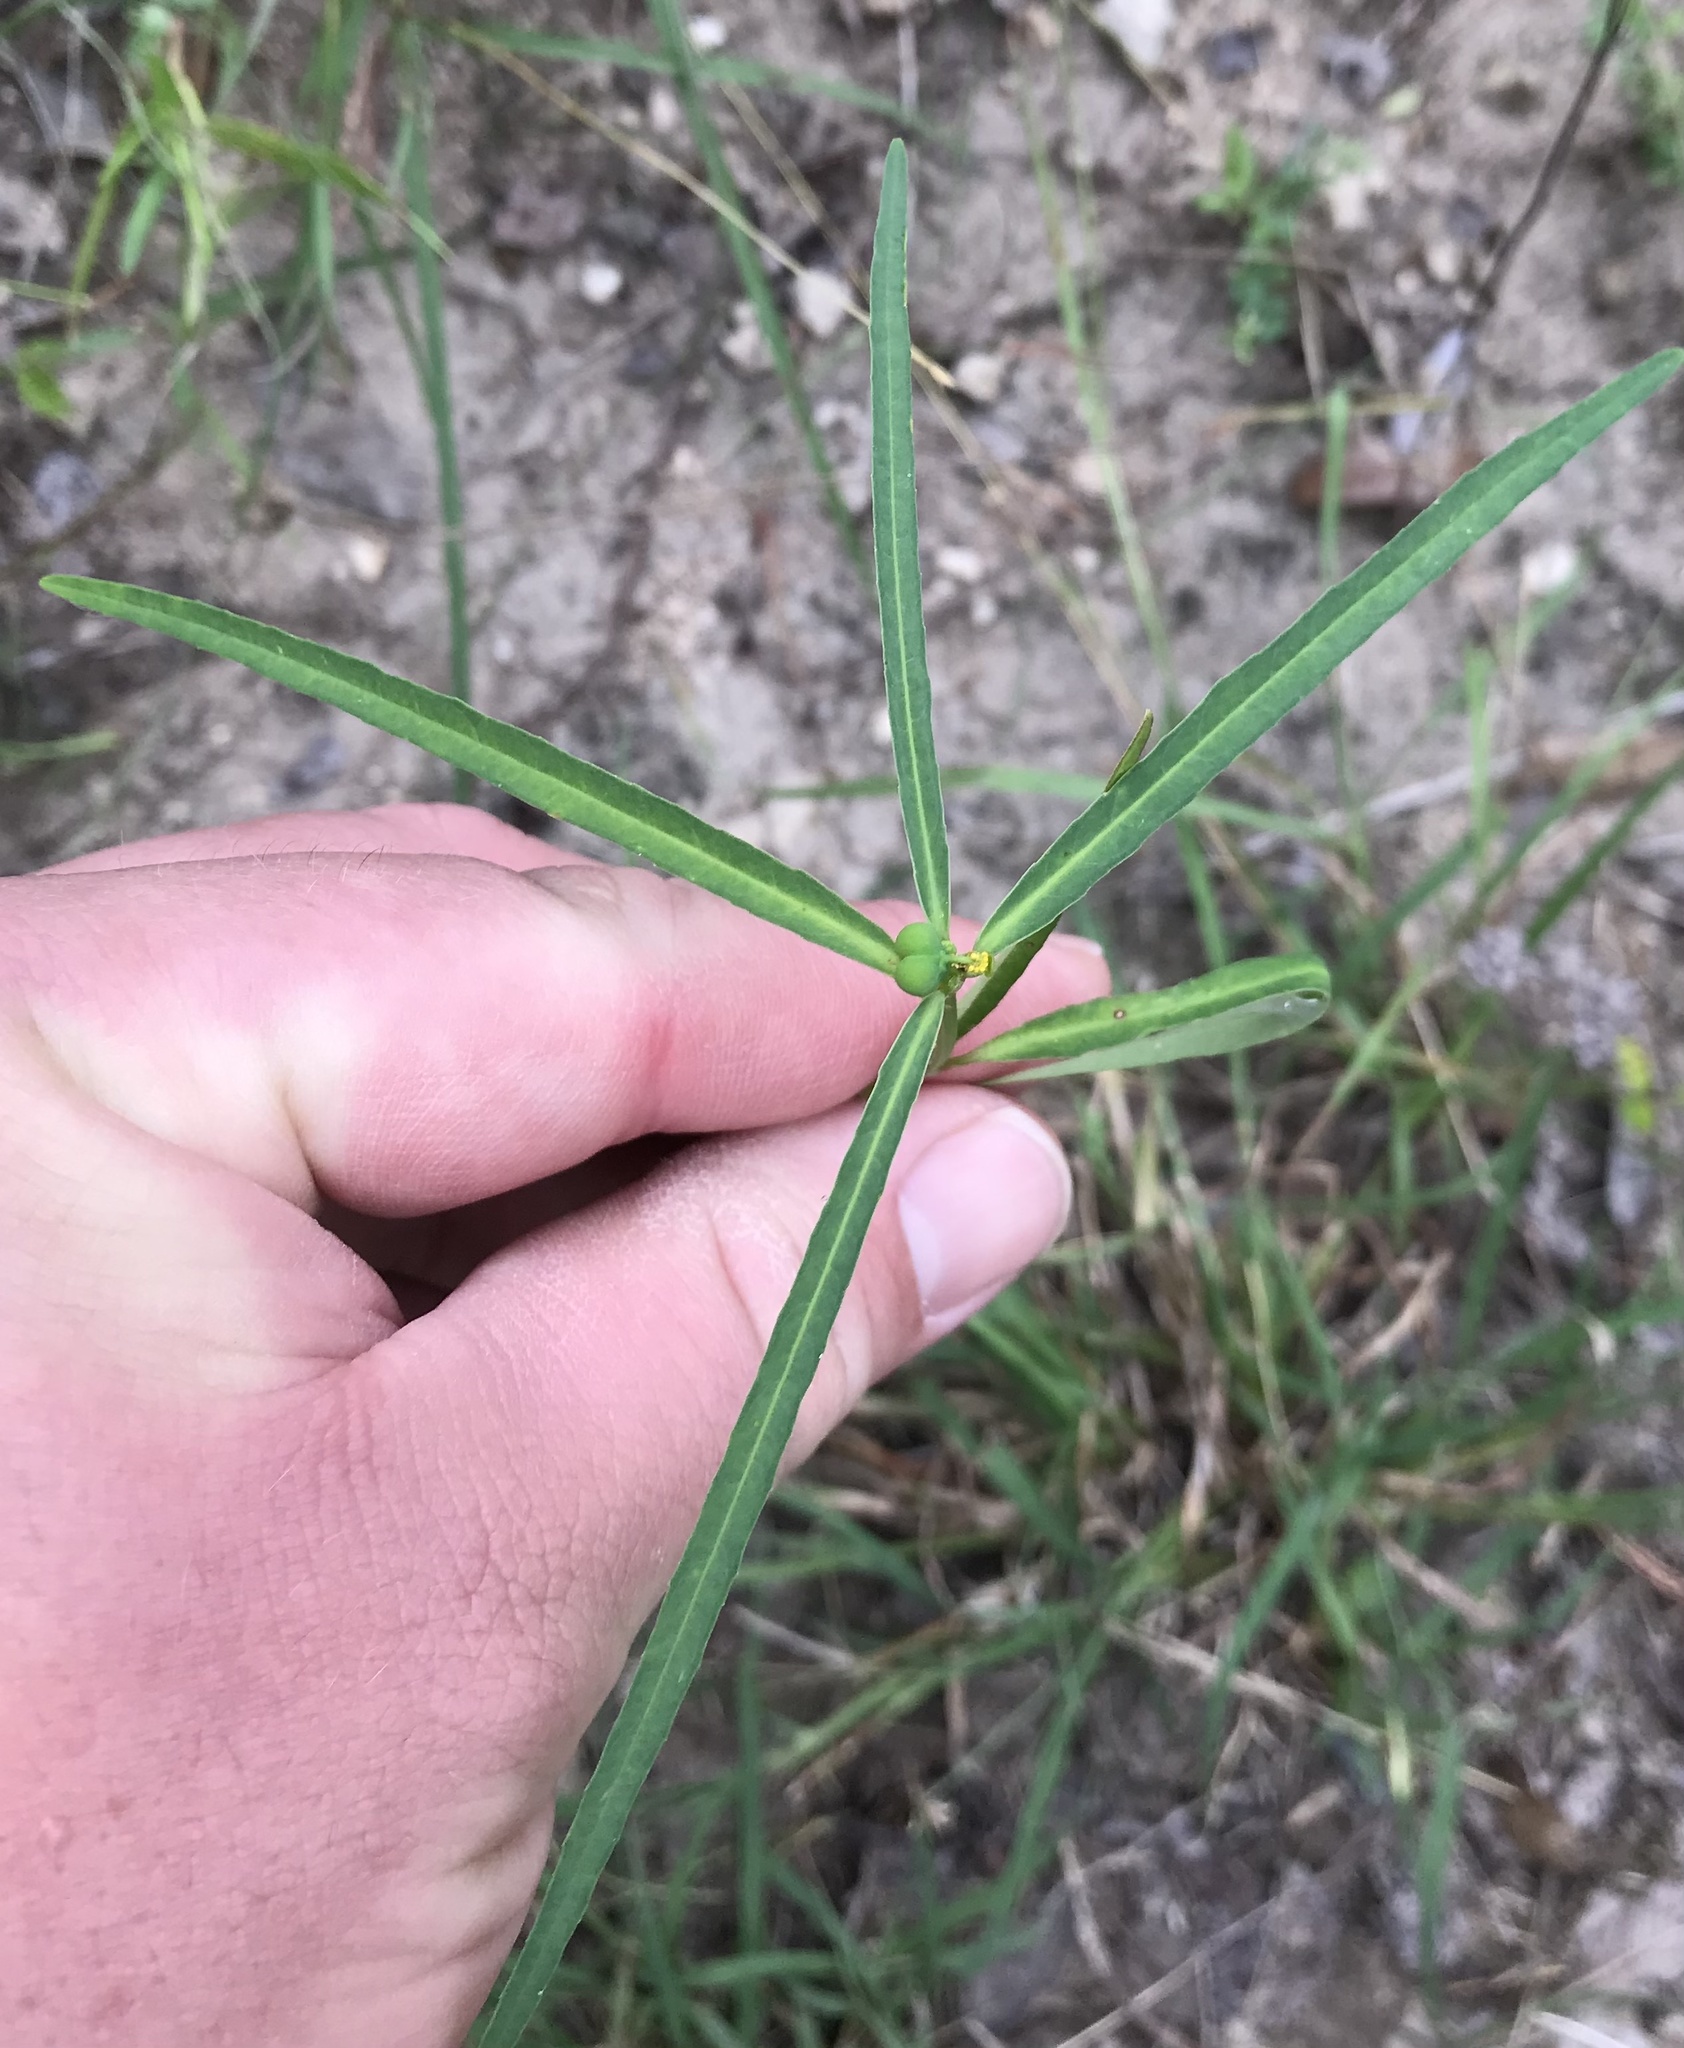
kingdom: Plantae
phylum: Tracheophyta
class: Magnoliopsida
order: Malpighiales
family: Euphorbiaceae
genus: Euphorbia
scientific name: Euphorbia heterophylla
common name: Mexican fireplant
